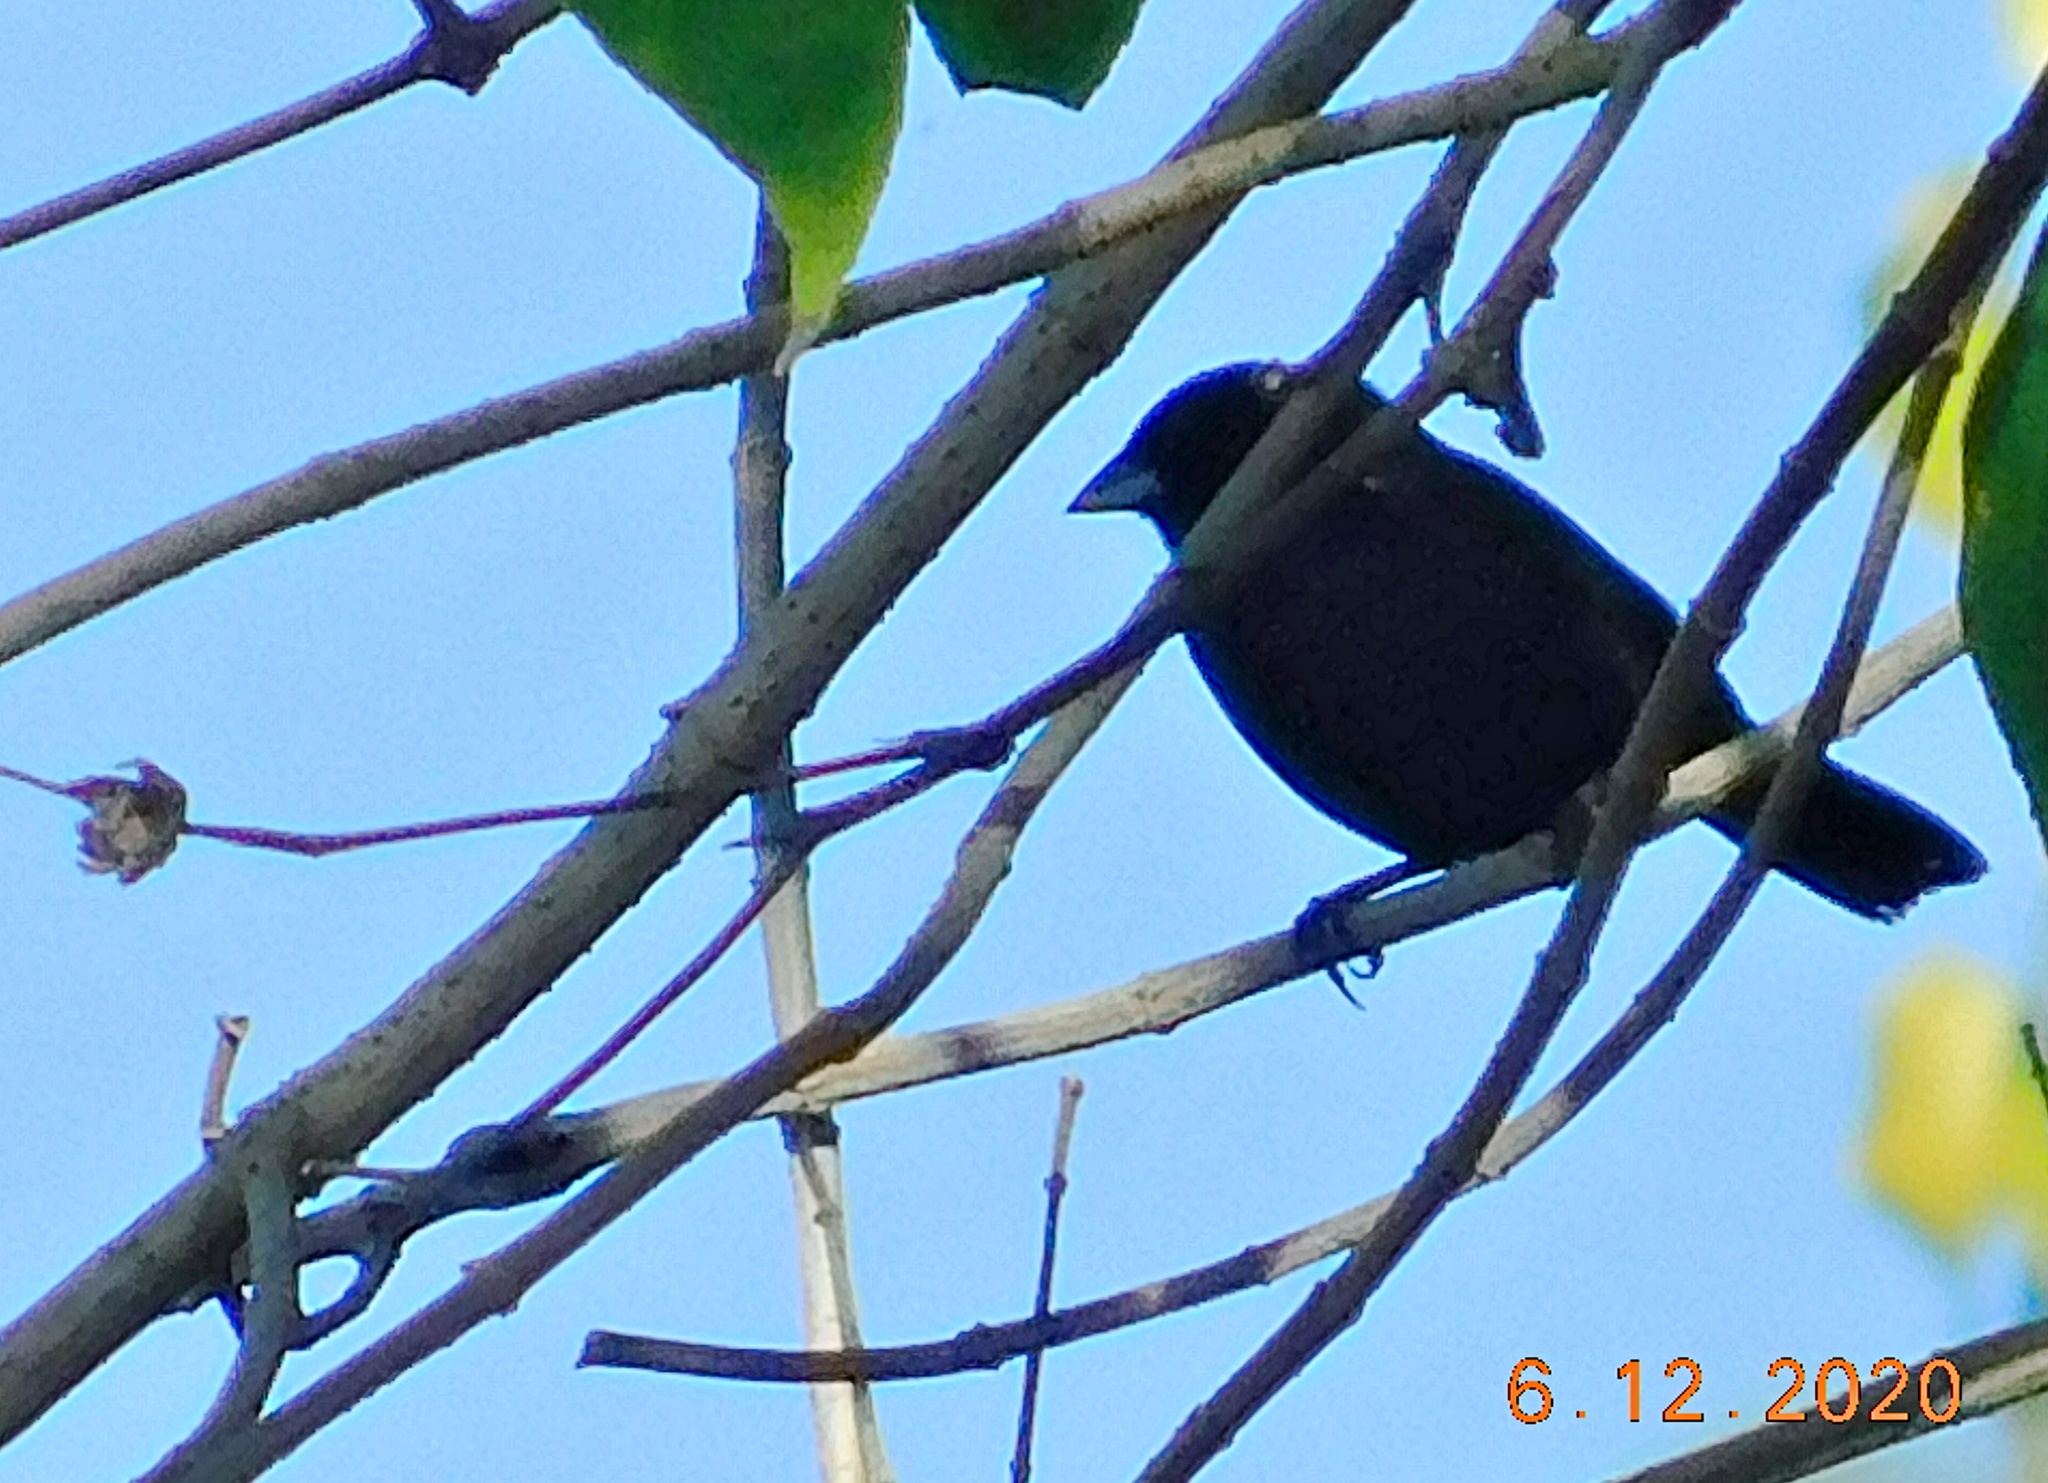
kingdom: Animalia
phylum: Chordata
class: Aves
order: Passeriformes
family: Thraupidae
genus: Volatinia
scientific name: Volatinia jacarina
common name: Blue-black grassquit
